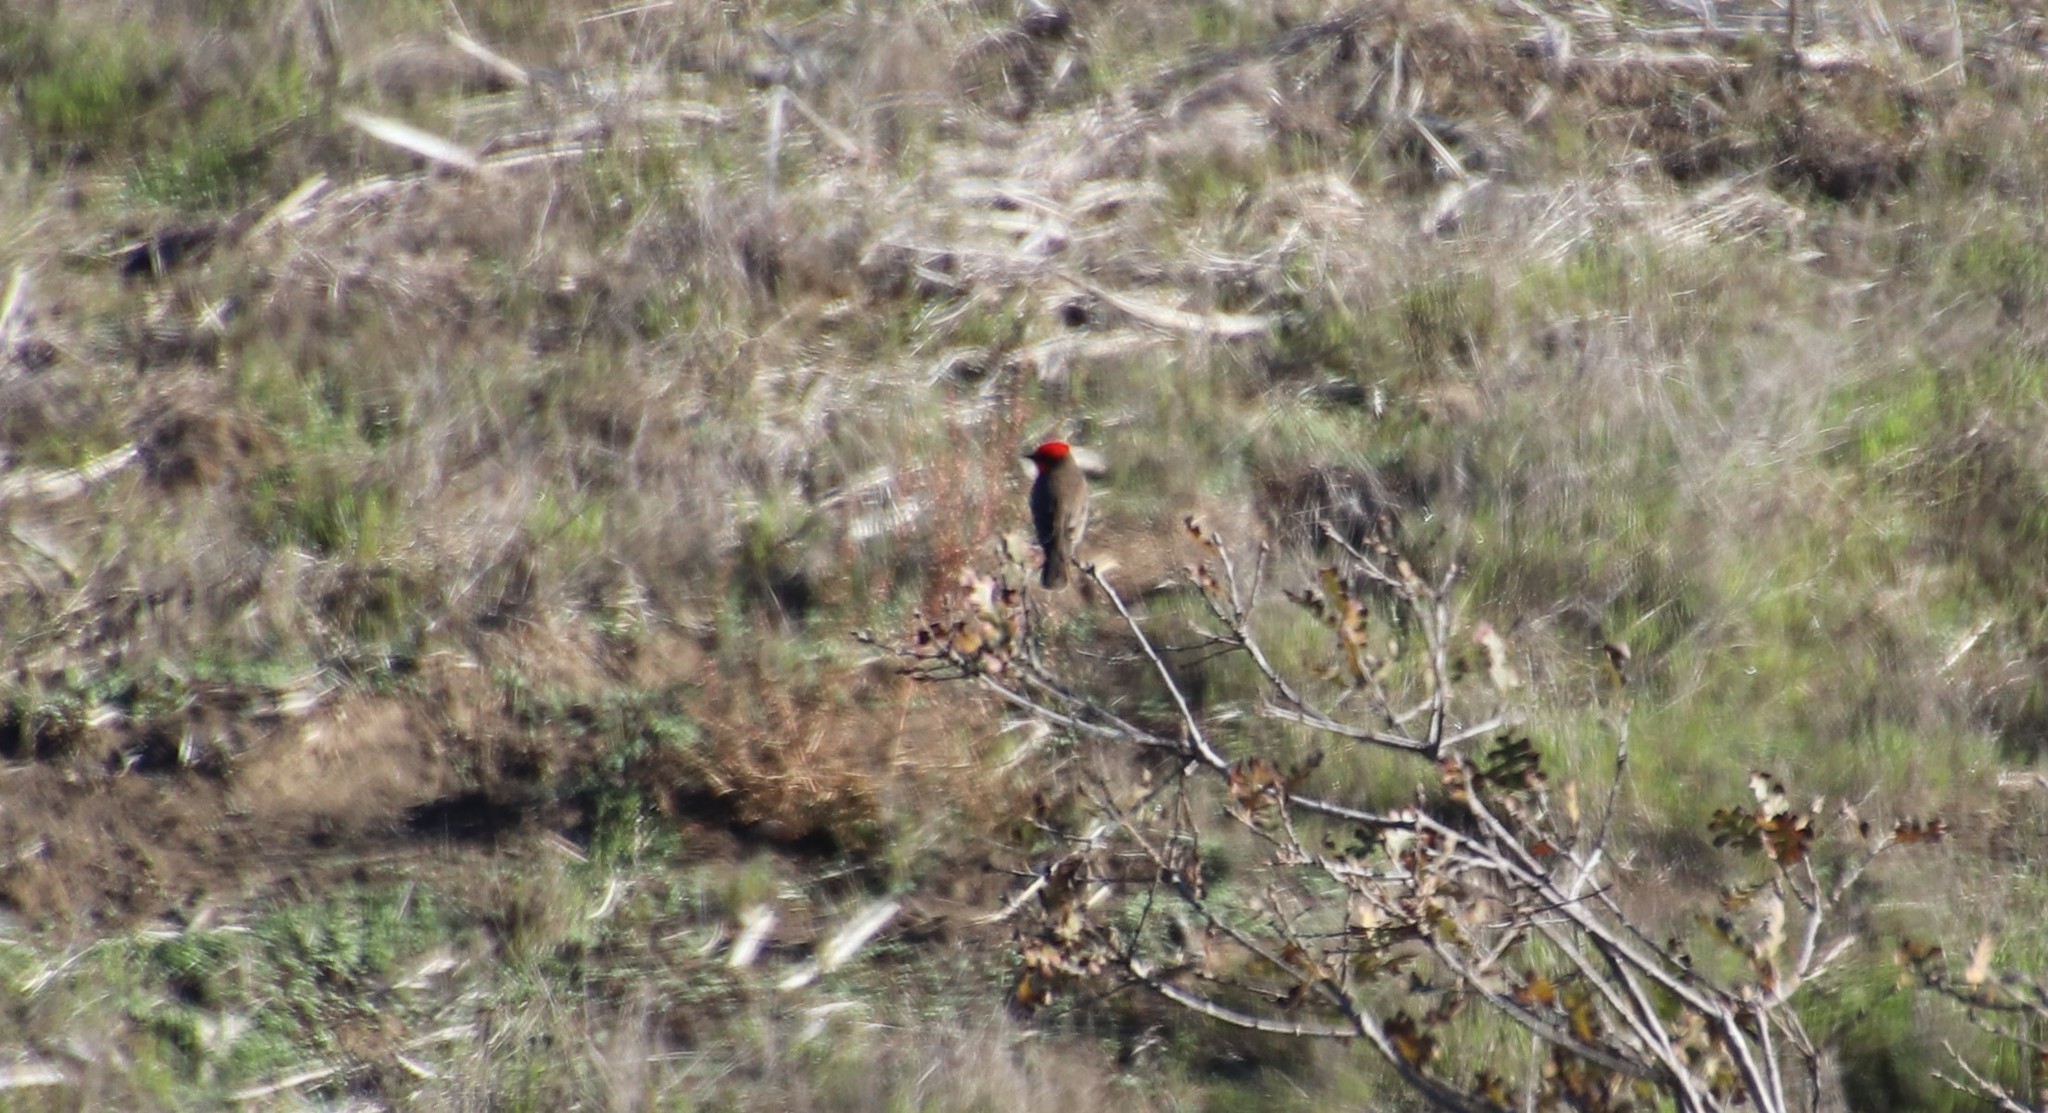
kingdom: Animalia
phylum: Chordata
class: Aves
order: Passeriformes
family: Tyrannidae
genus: Pyrocephalus
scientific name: Pyrocephalus rubinus
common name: Vermilion flycatcher
